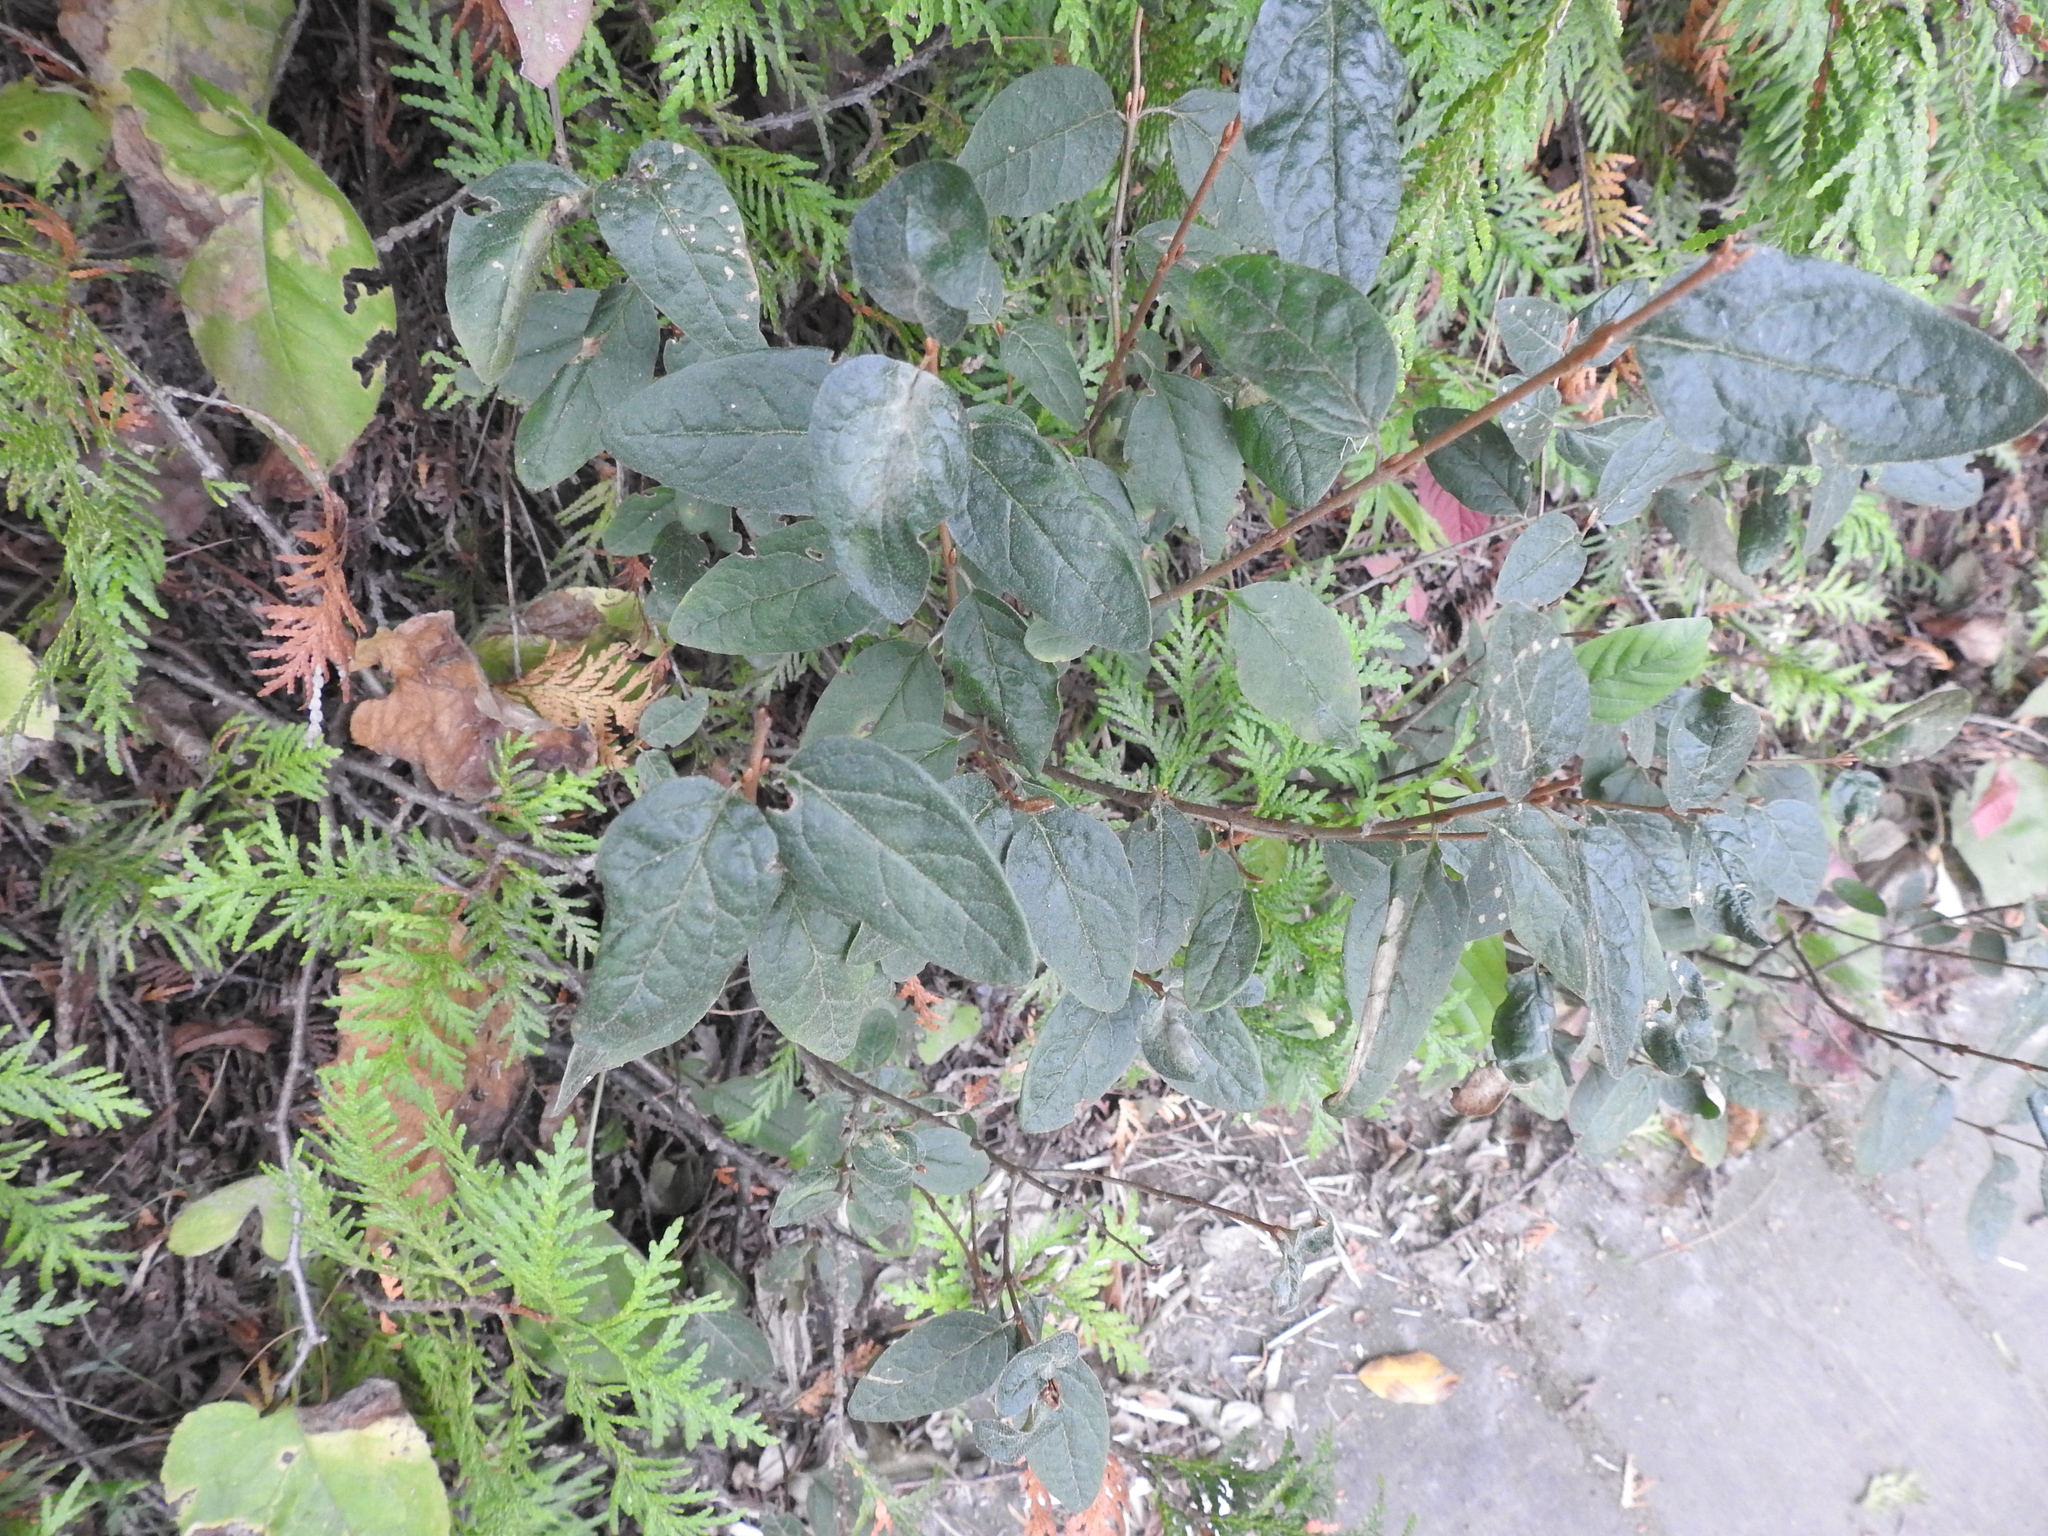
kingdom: Plantae
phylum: Tracheophyta
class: Magnoliopsida
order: Rosales
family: Elaeagnaceae
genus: Shepherdia
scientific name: Shepherdia canadensis
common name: Soapberry
